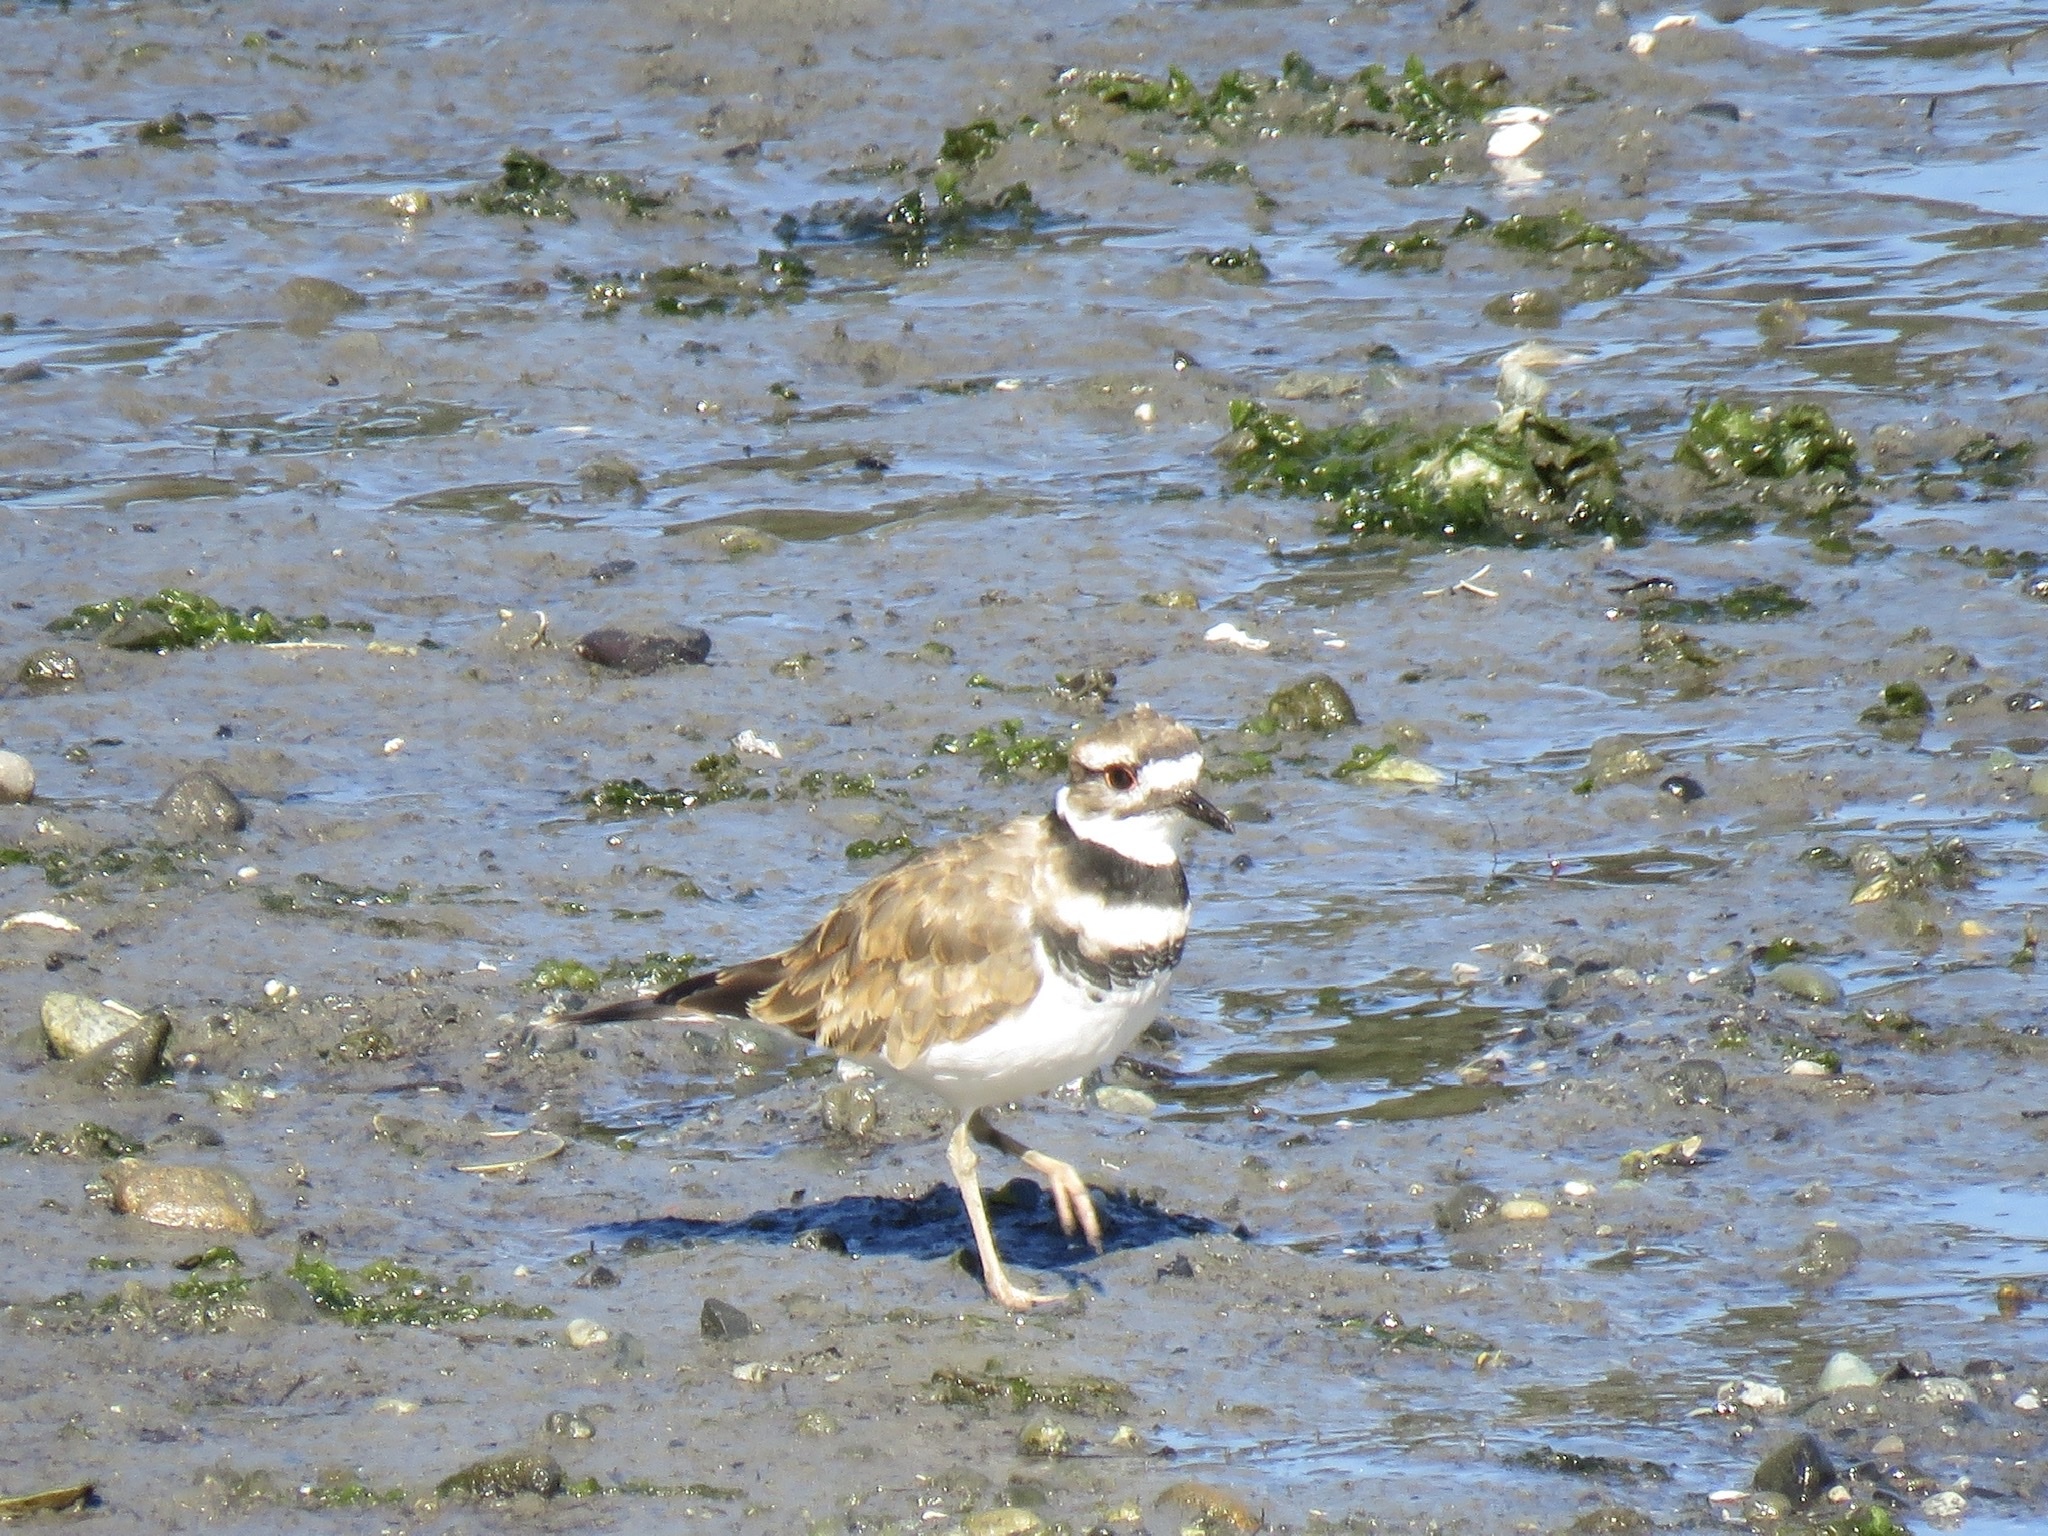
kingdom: Animalia
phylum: Chordata
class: Aves
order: Charadriiformes
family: Charadriidae
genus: Charadrius
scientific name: Charadrius vociferus
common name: Killdeer
